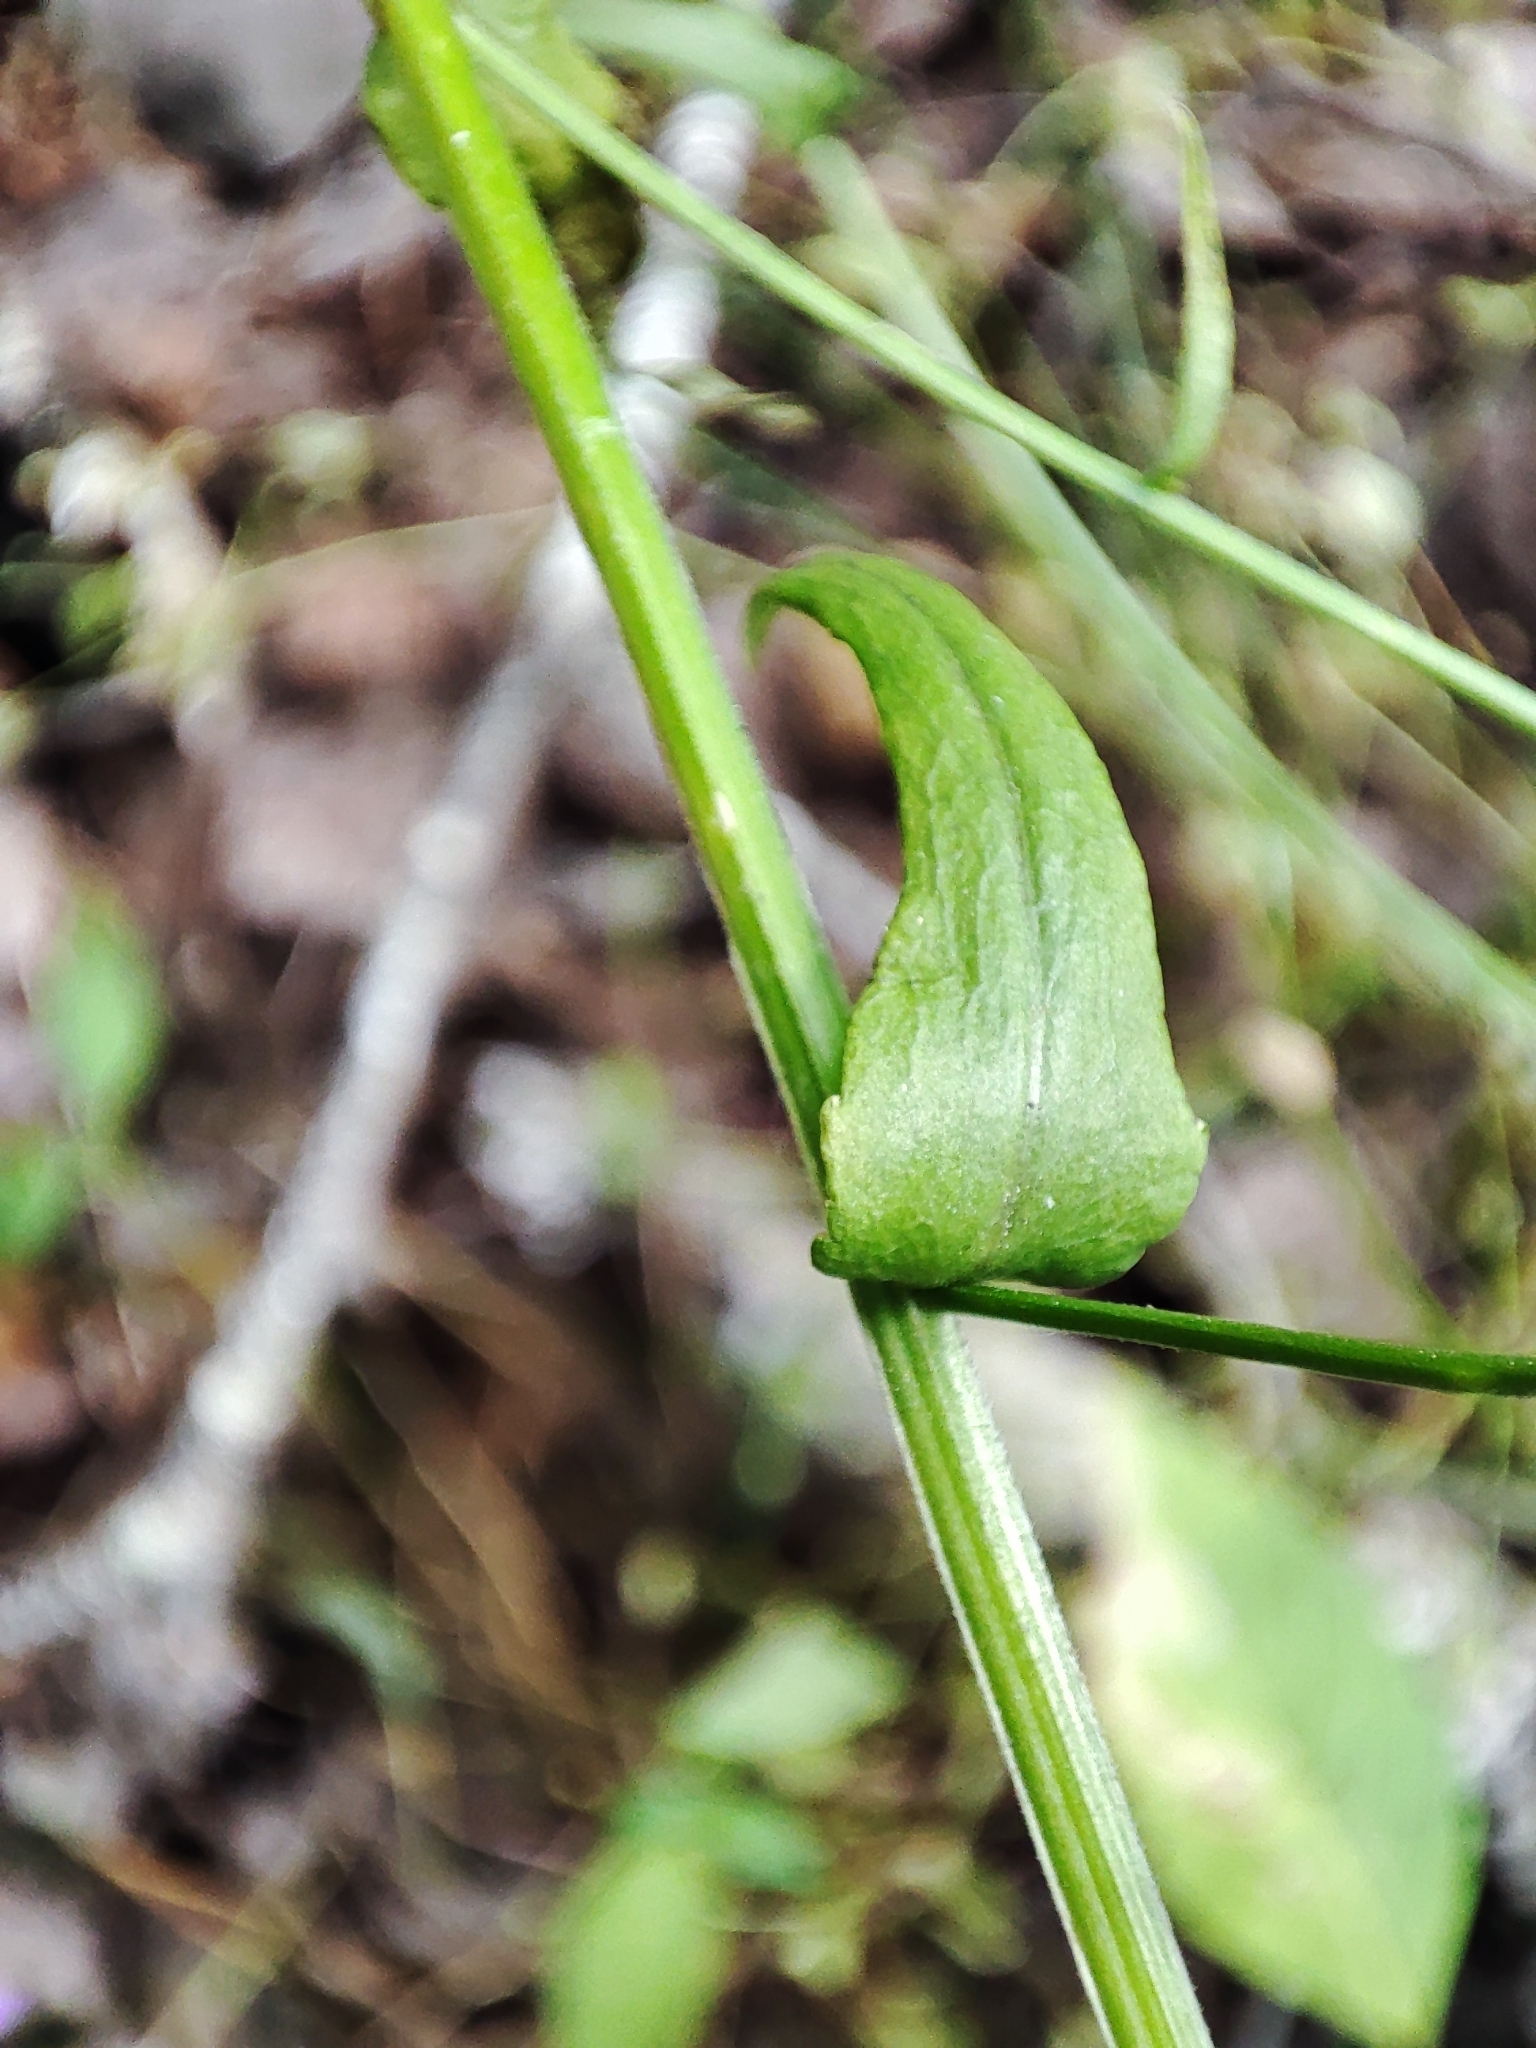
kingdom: Plantae
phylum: Tracheophyta
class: Magnoliopsida
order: Asterales
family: Campanulaceae
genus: Campanula
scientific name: Campanula patula
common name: Spreading bellflower
